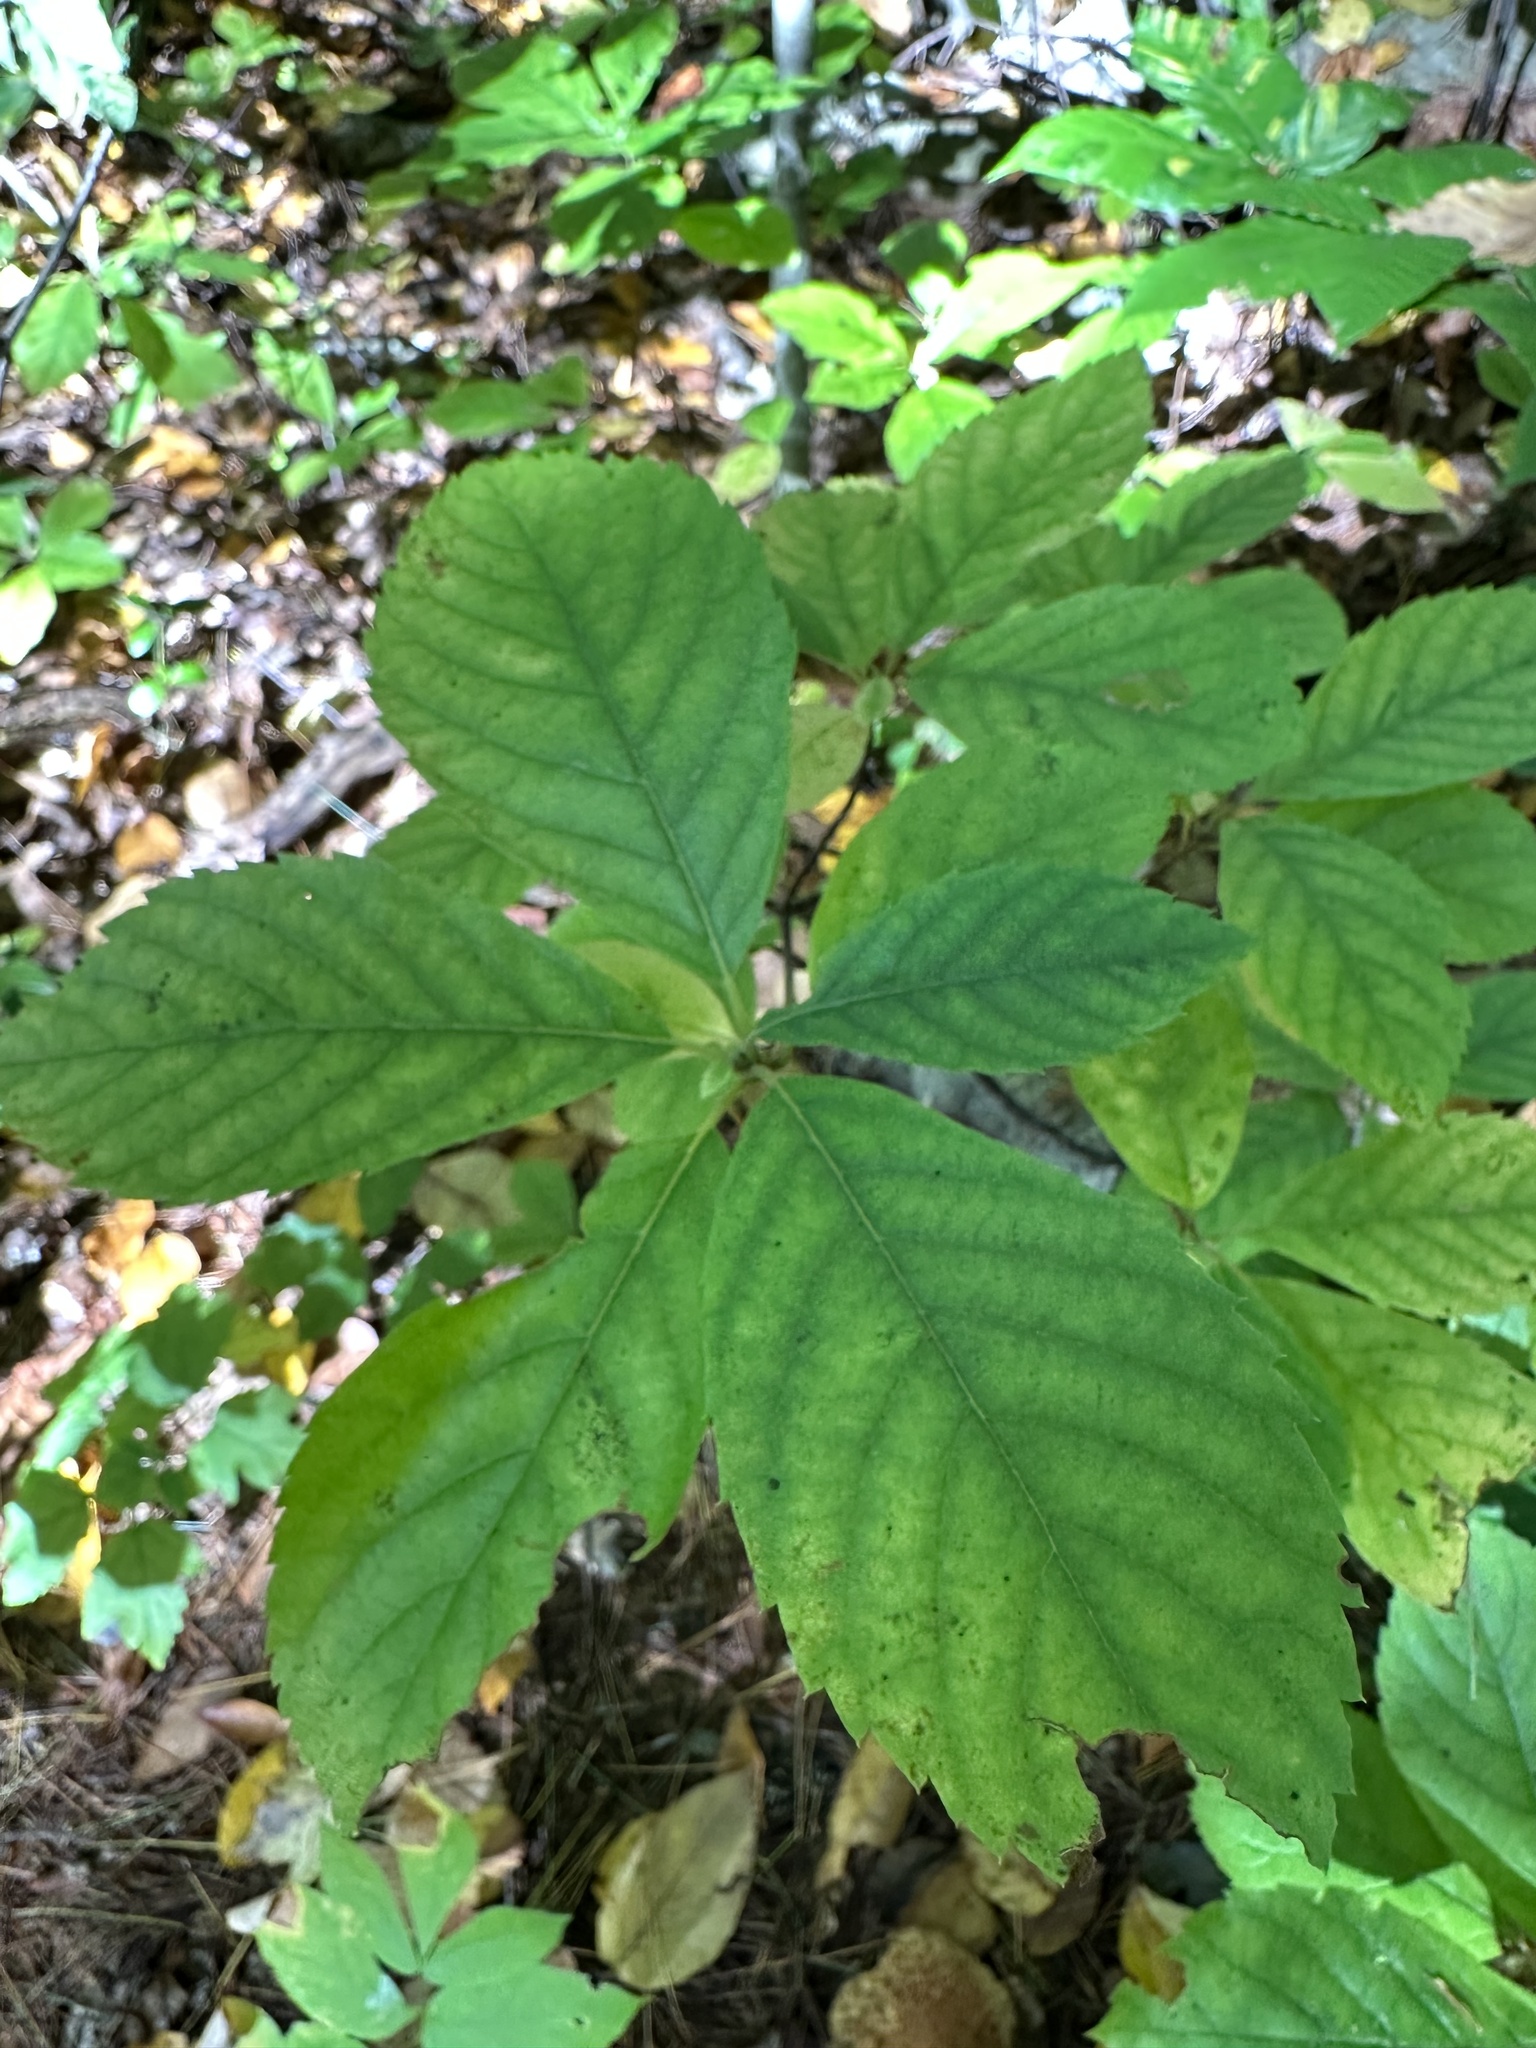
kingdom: Plantae
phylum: Tracheophyta
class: Magnoliopsida
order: Ericales
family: Clethraceae
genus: Clethra
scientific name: Clethra alnifolia
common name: Sweet pepperbush
